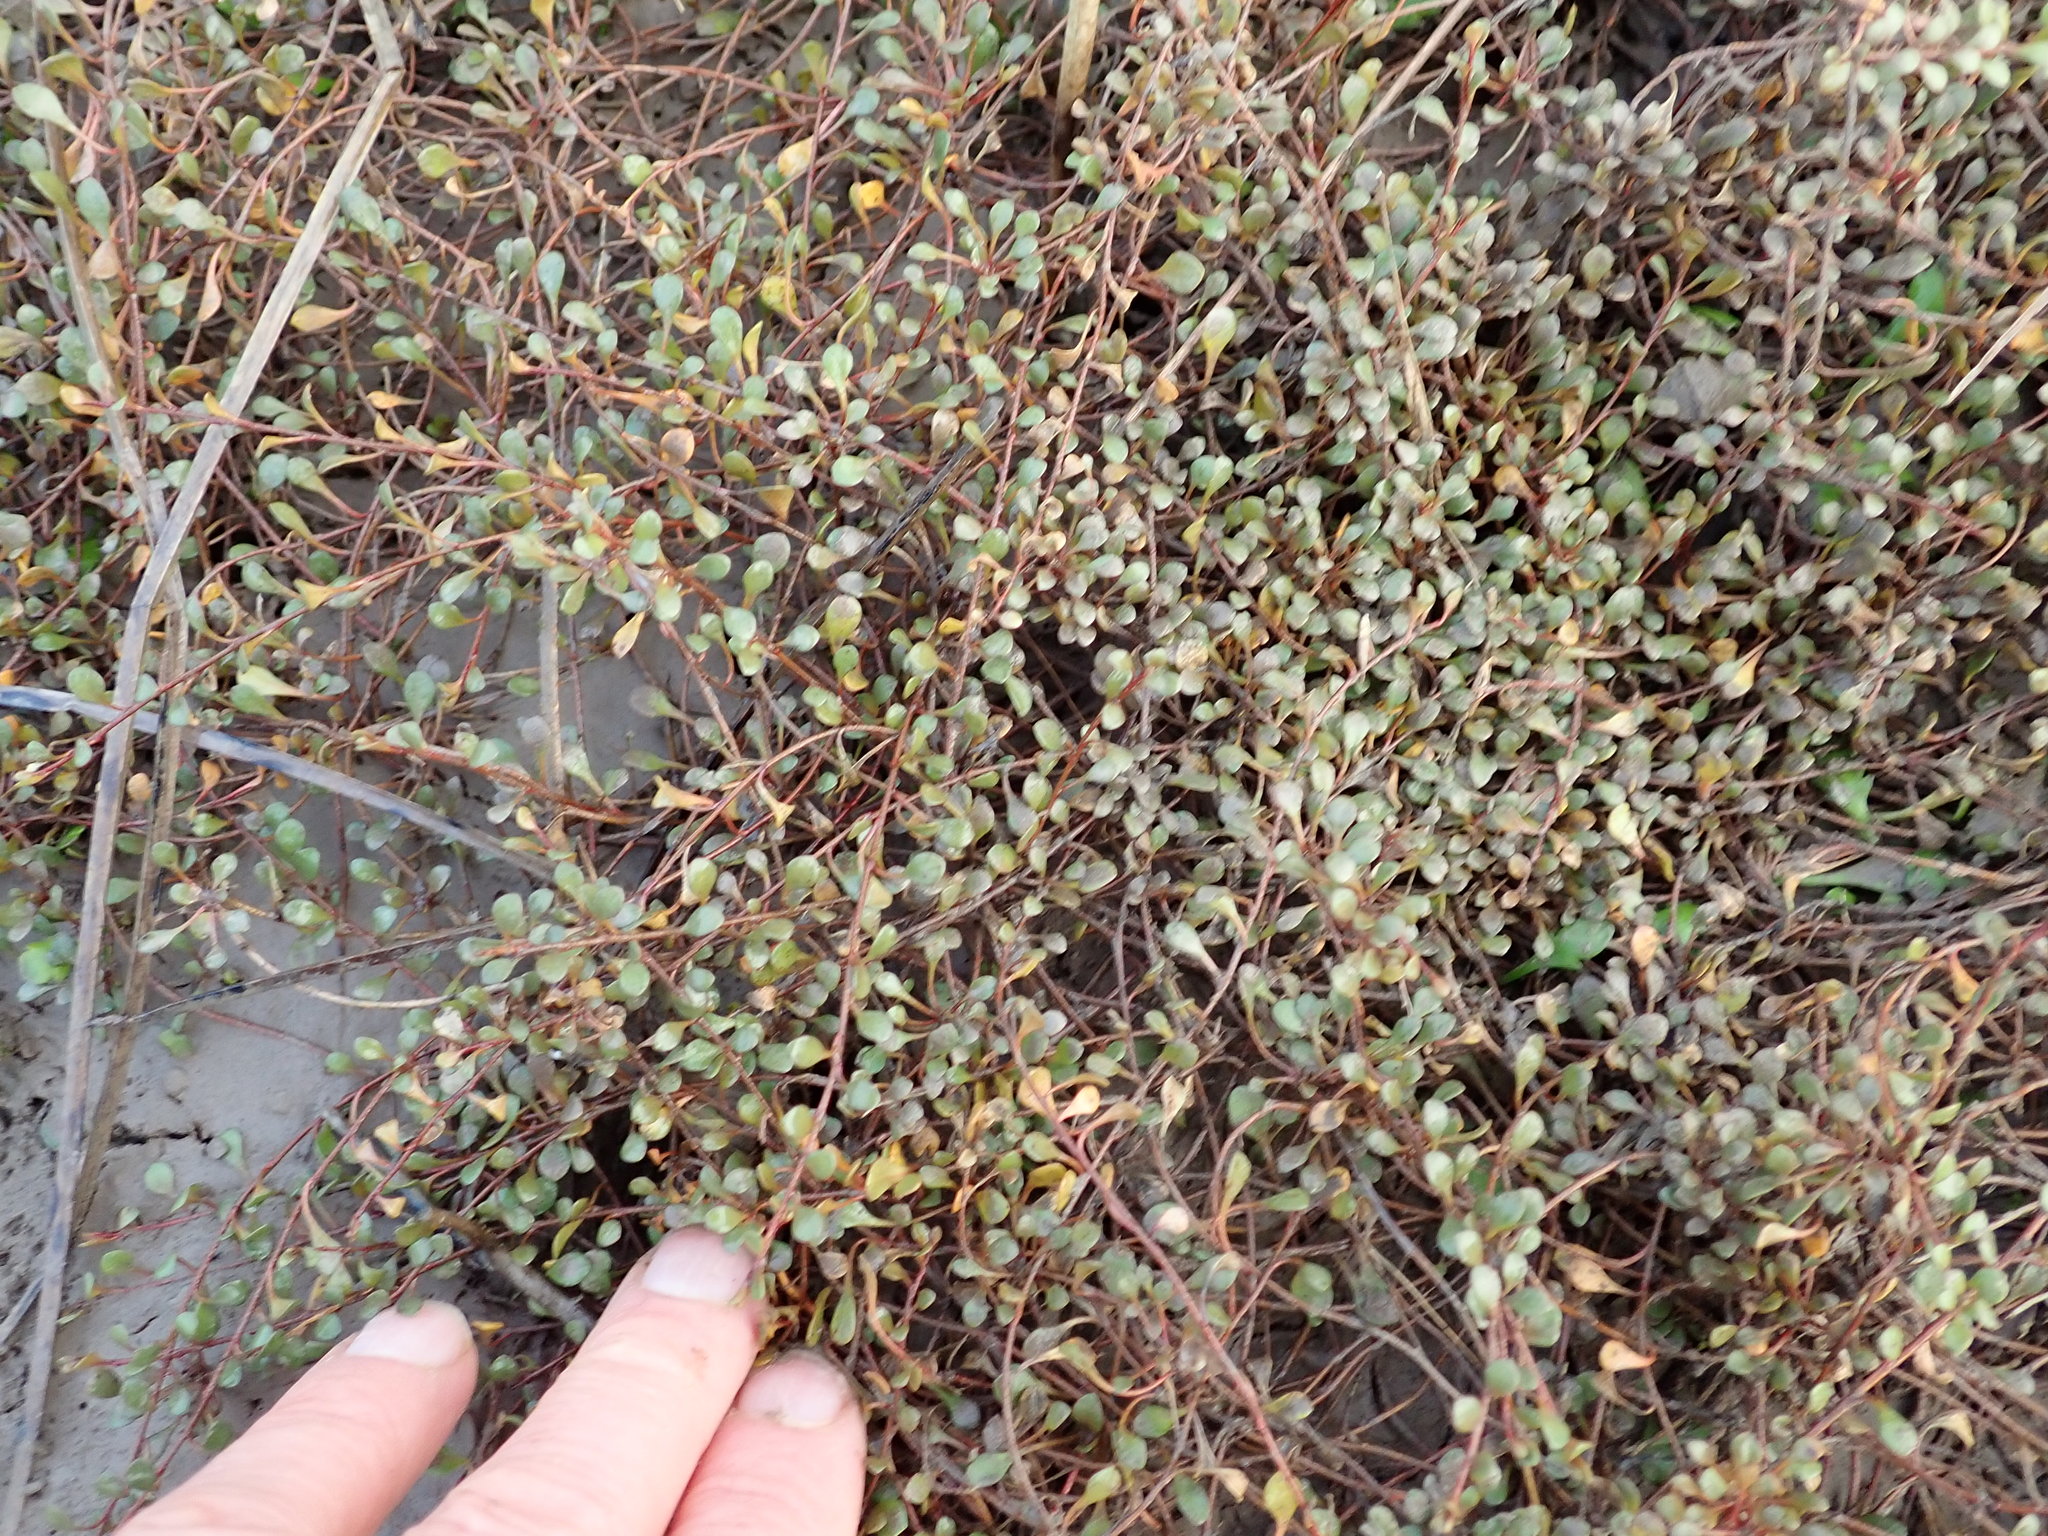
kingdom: Plantae
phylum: Tracheophyta
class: Magnoliopsida
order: Ericales
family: Primulaceae
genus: Samolus
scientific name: Samolus repens
